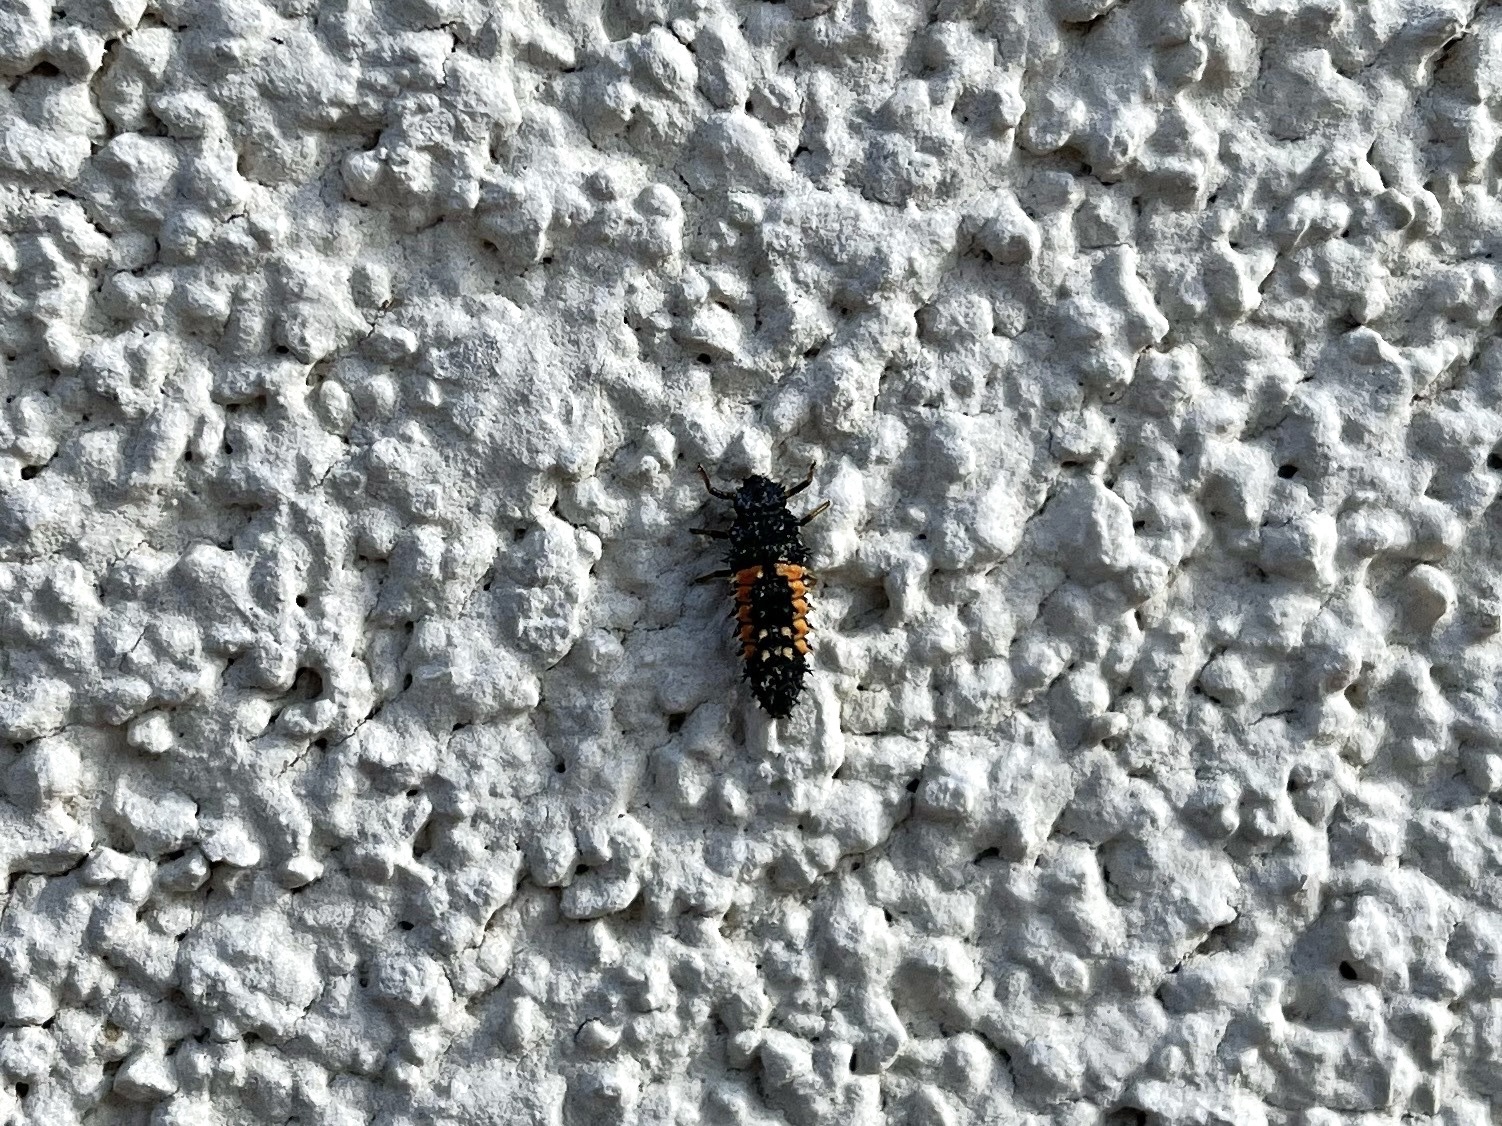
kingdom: Animalia
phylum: Arthropoda
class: Insecta
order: Coleoptera
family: Coccinellidae
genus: Harmonia
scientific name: Harmonia axyridis
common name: Harlequin ladybird
